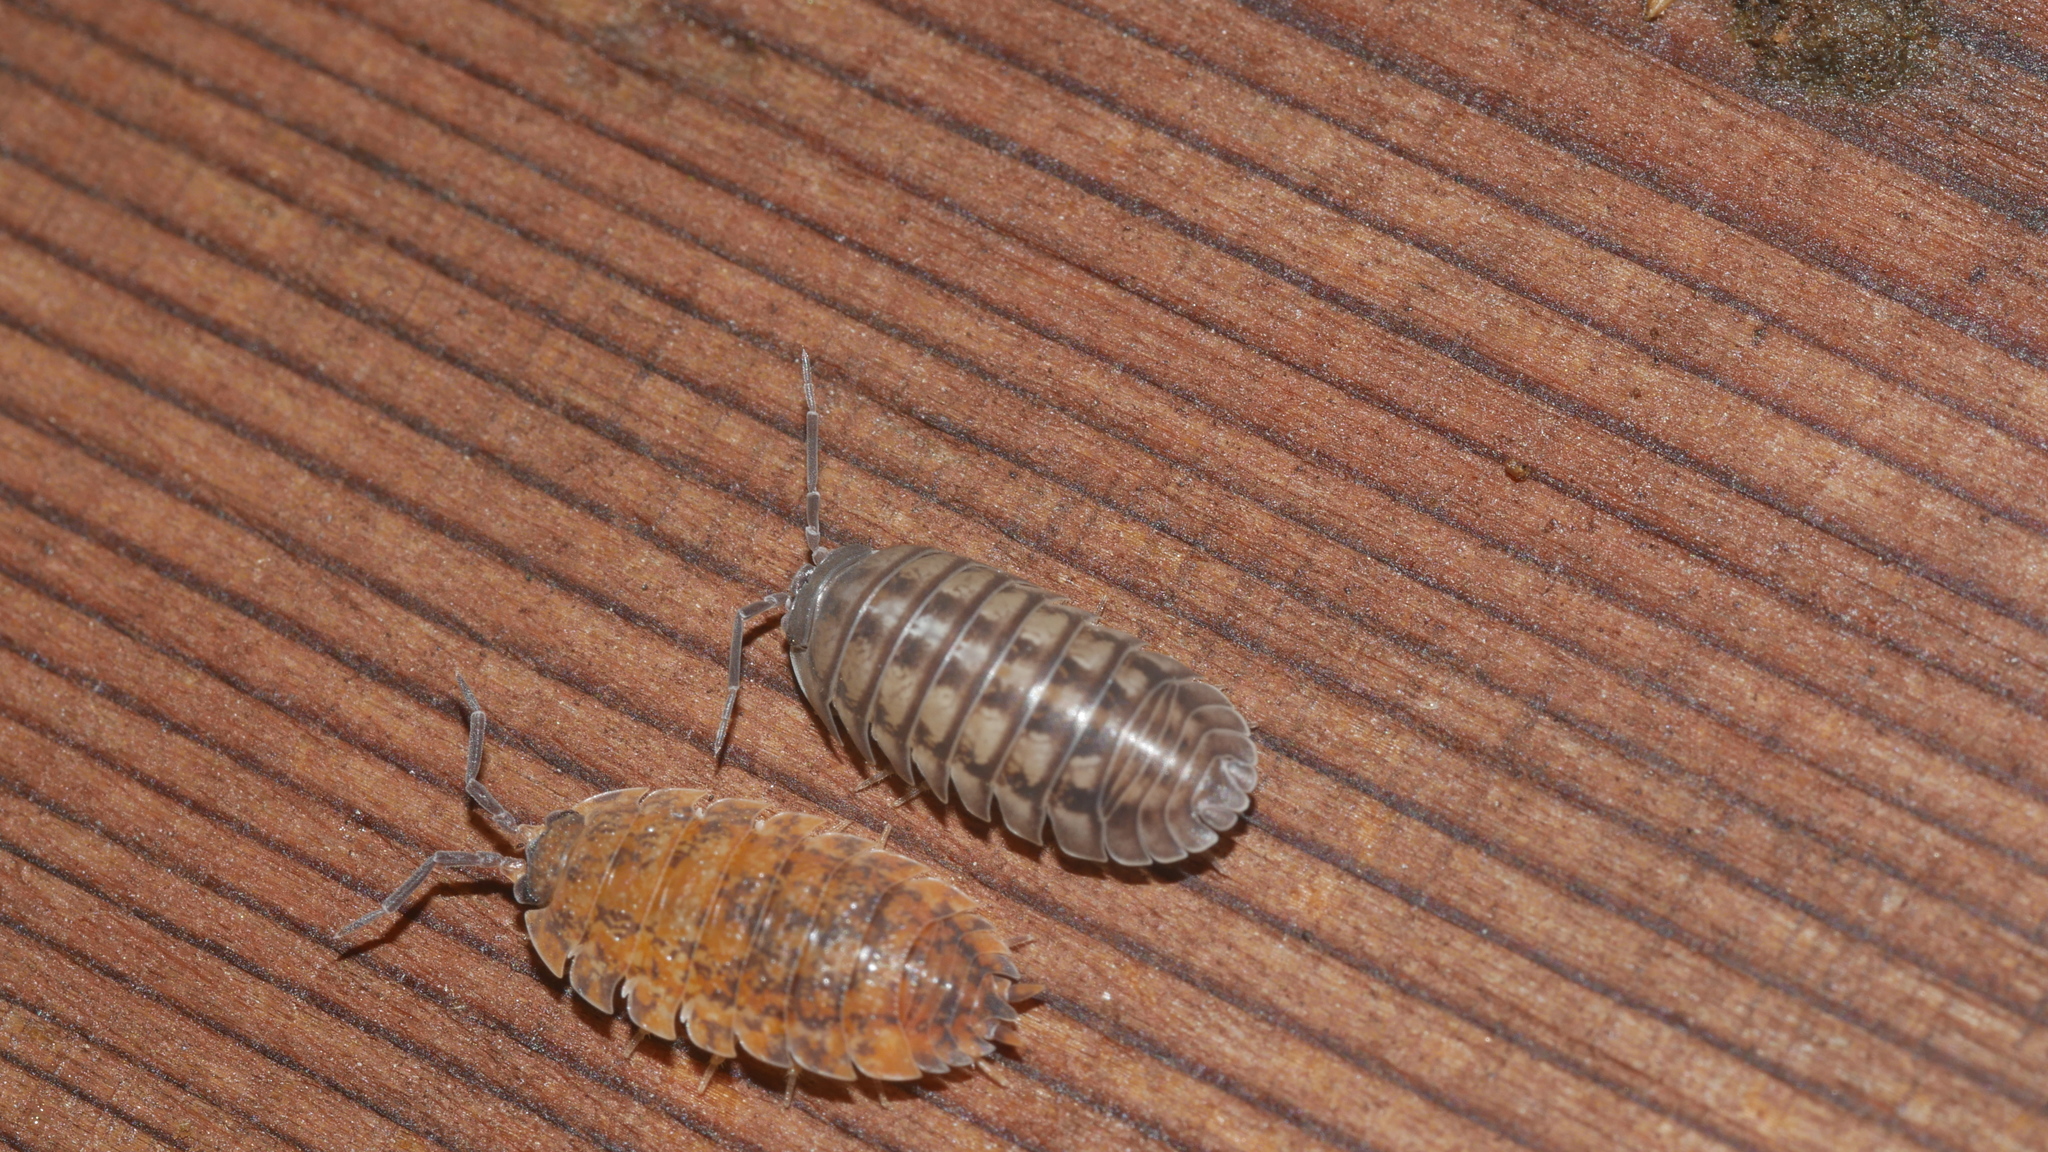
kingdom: Animalia
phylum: Arthropoda
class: Malacostraca
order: Isopoda
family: Armadillidiidae
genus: Armadillidium
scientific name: Armadillidium nasatum
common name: Isopod
